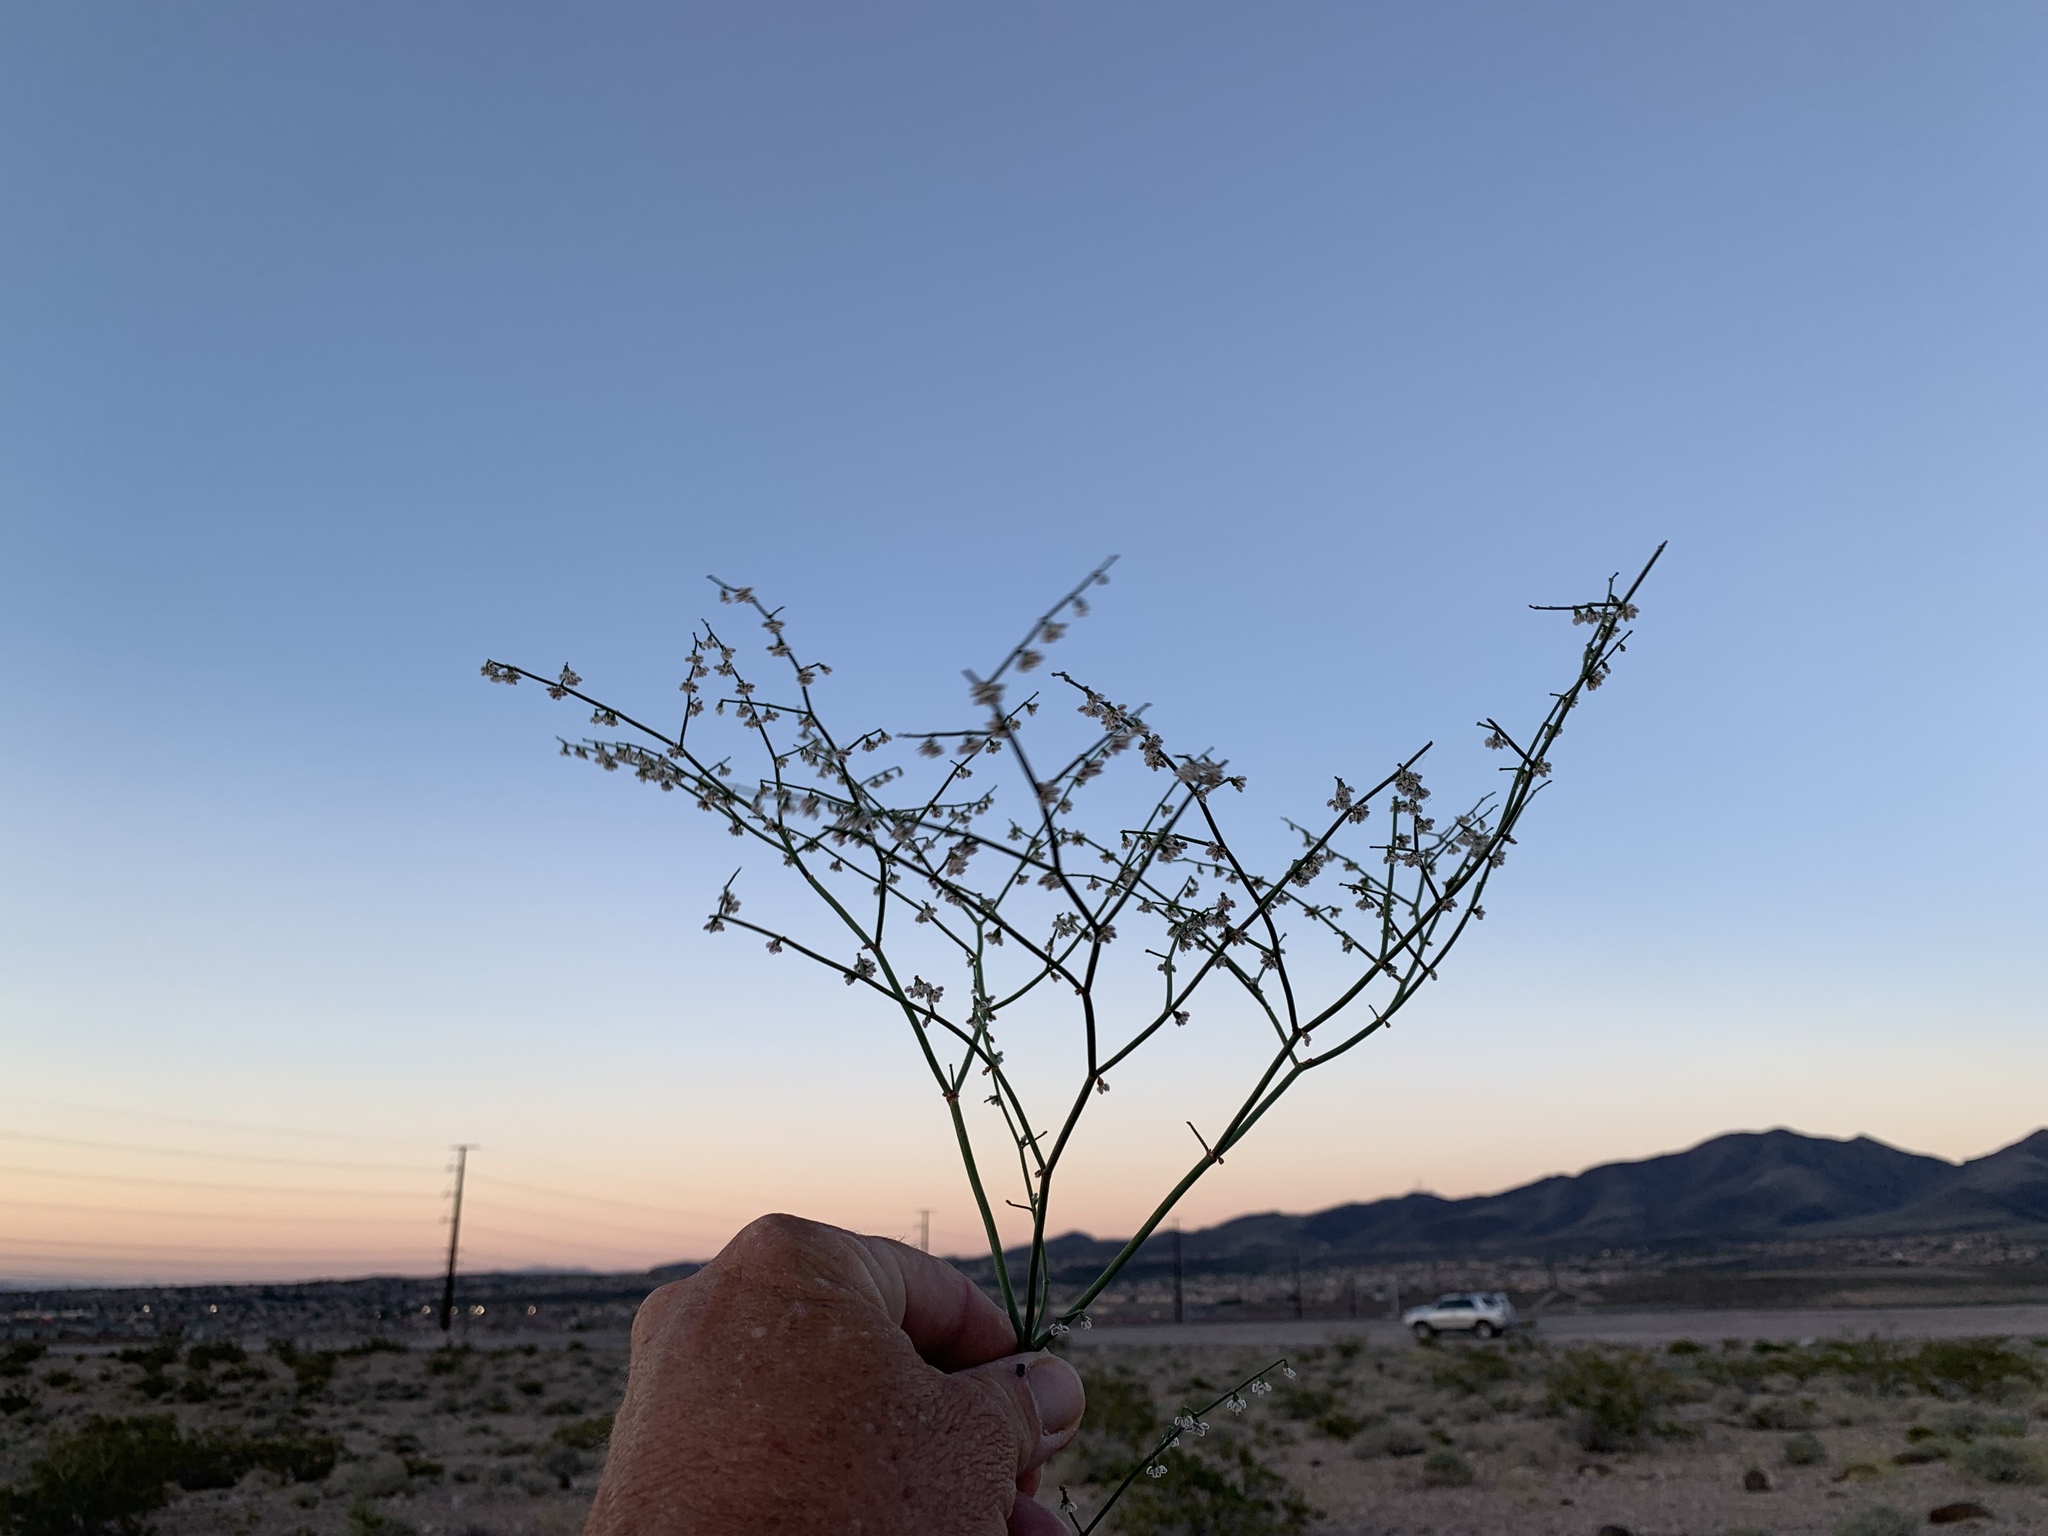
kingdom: Plantae
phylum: Tracheophyta
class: Magnoliopsida
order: Caryophyllales
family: Polygonaceae
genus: Eriogonum
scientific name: Eriogonum deflexum
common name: Skeleton-weed
